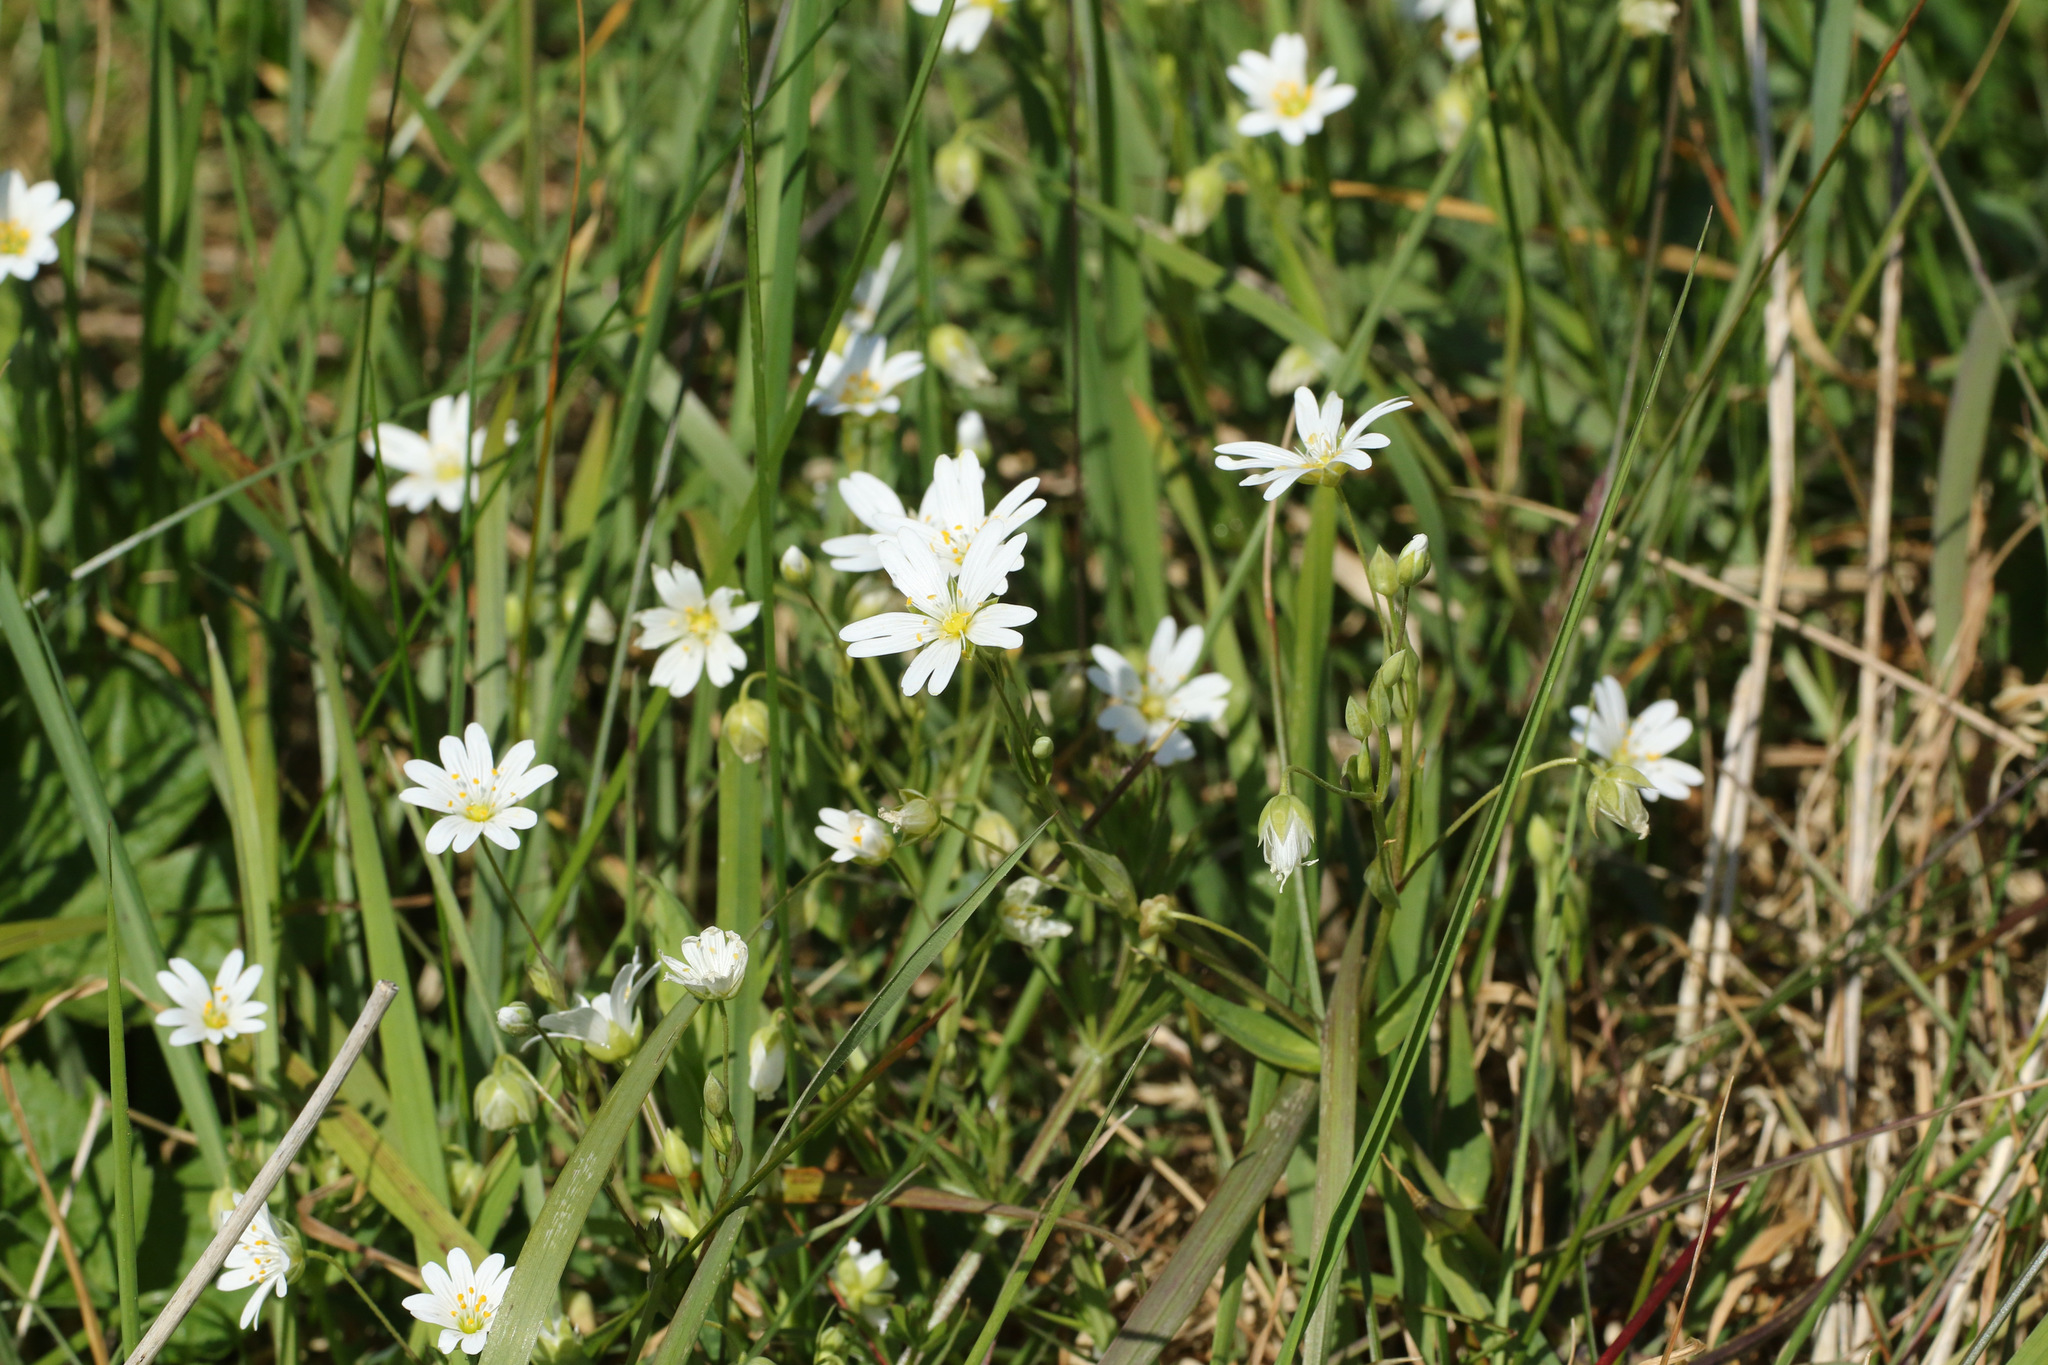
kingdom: Plantae
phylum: Tracheophyta
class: Magnoliopsida
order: Caryophyllales
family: Caryophyllaceae
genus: Rabelera
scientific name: Rabelera holostea
